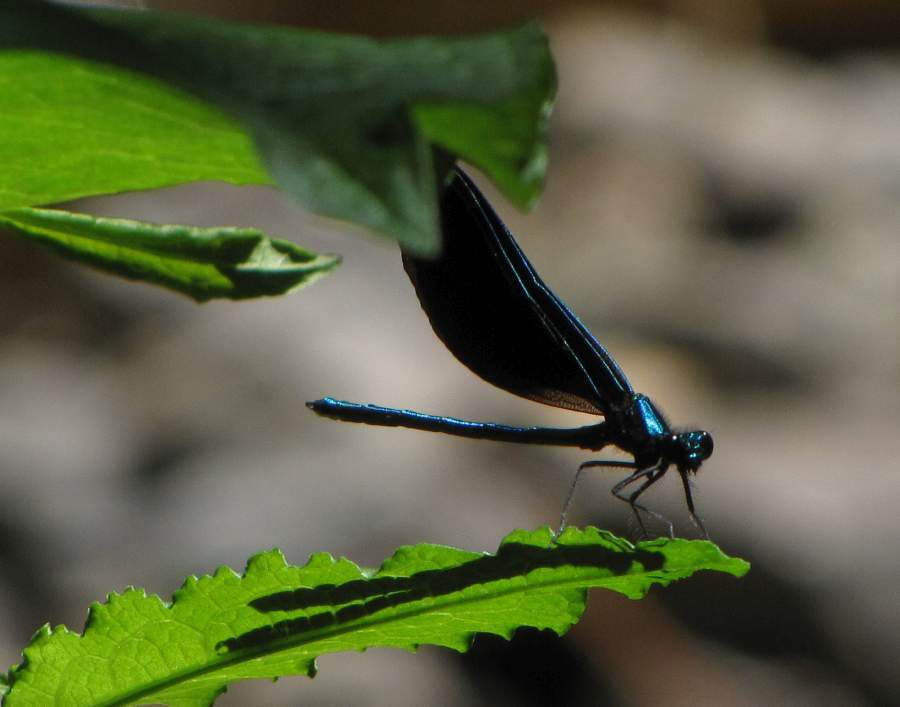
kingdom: Animalia
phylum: Arthropoda
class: Insecta
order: Odonata
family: Calopterygidae
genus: Calopteryx
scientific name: Calopteryx maculata
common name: Ebony jewelwing
